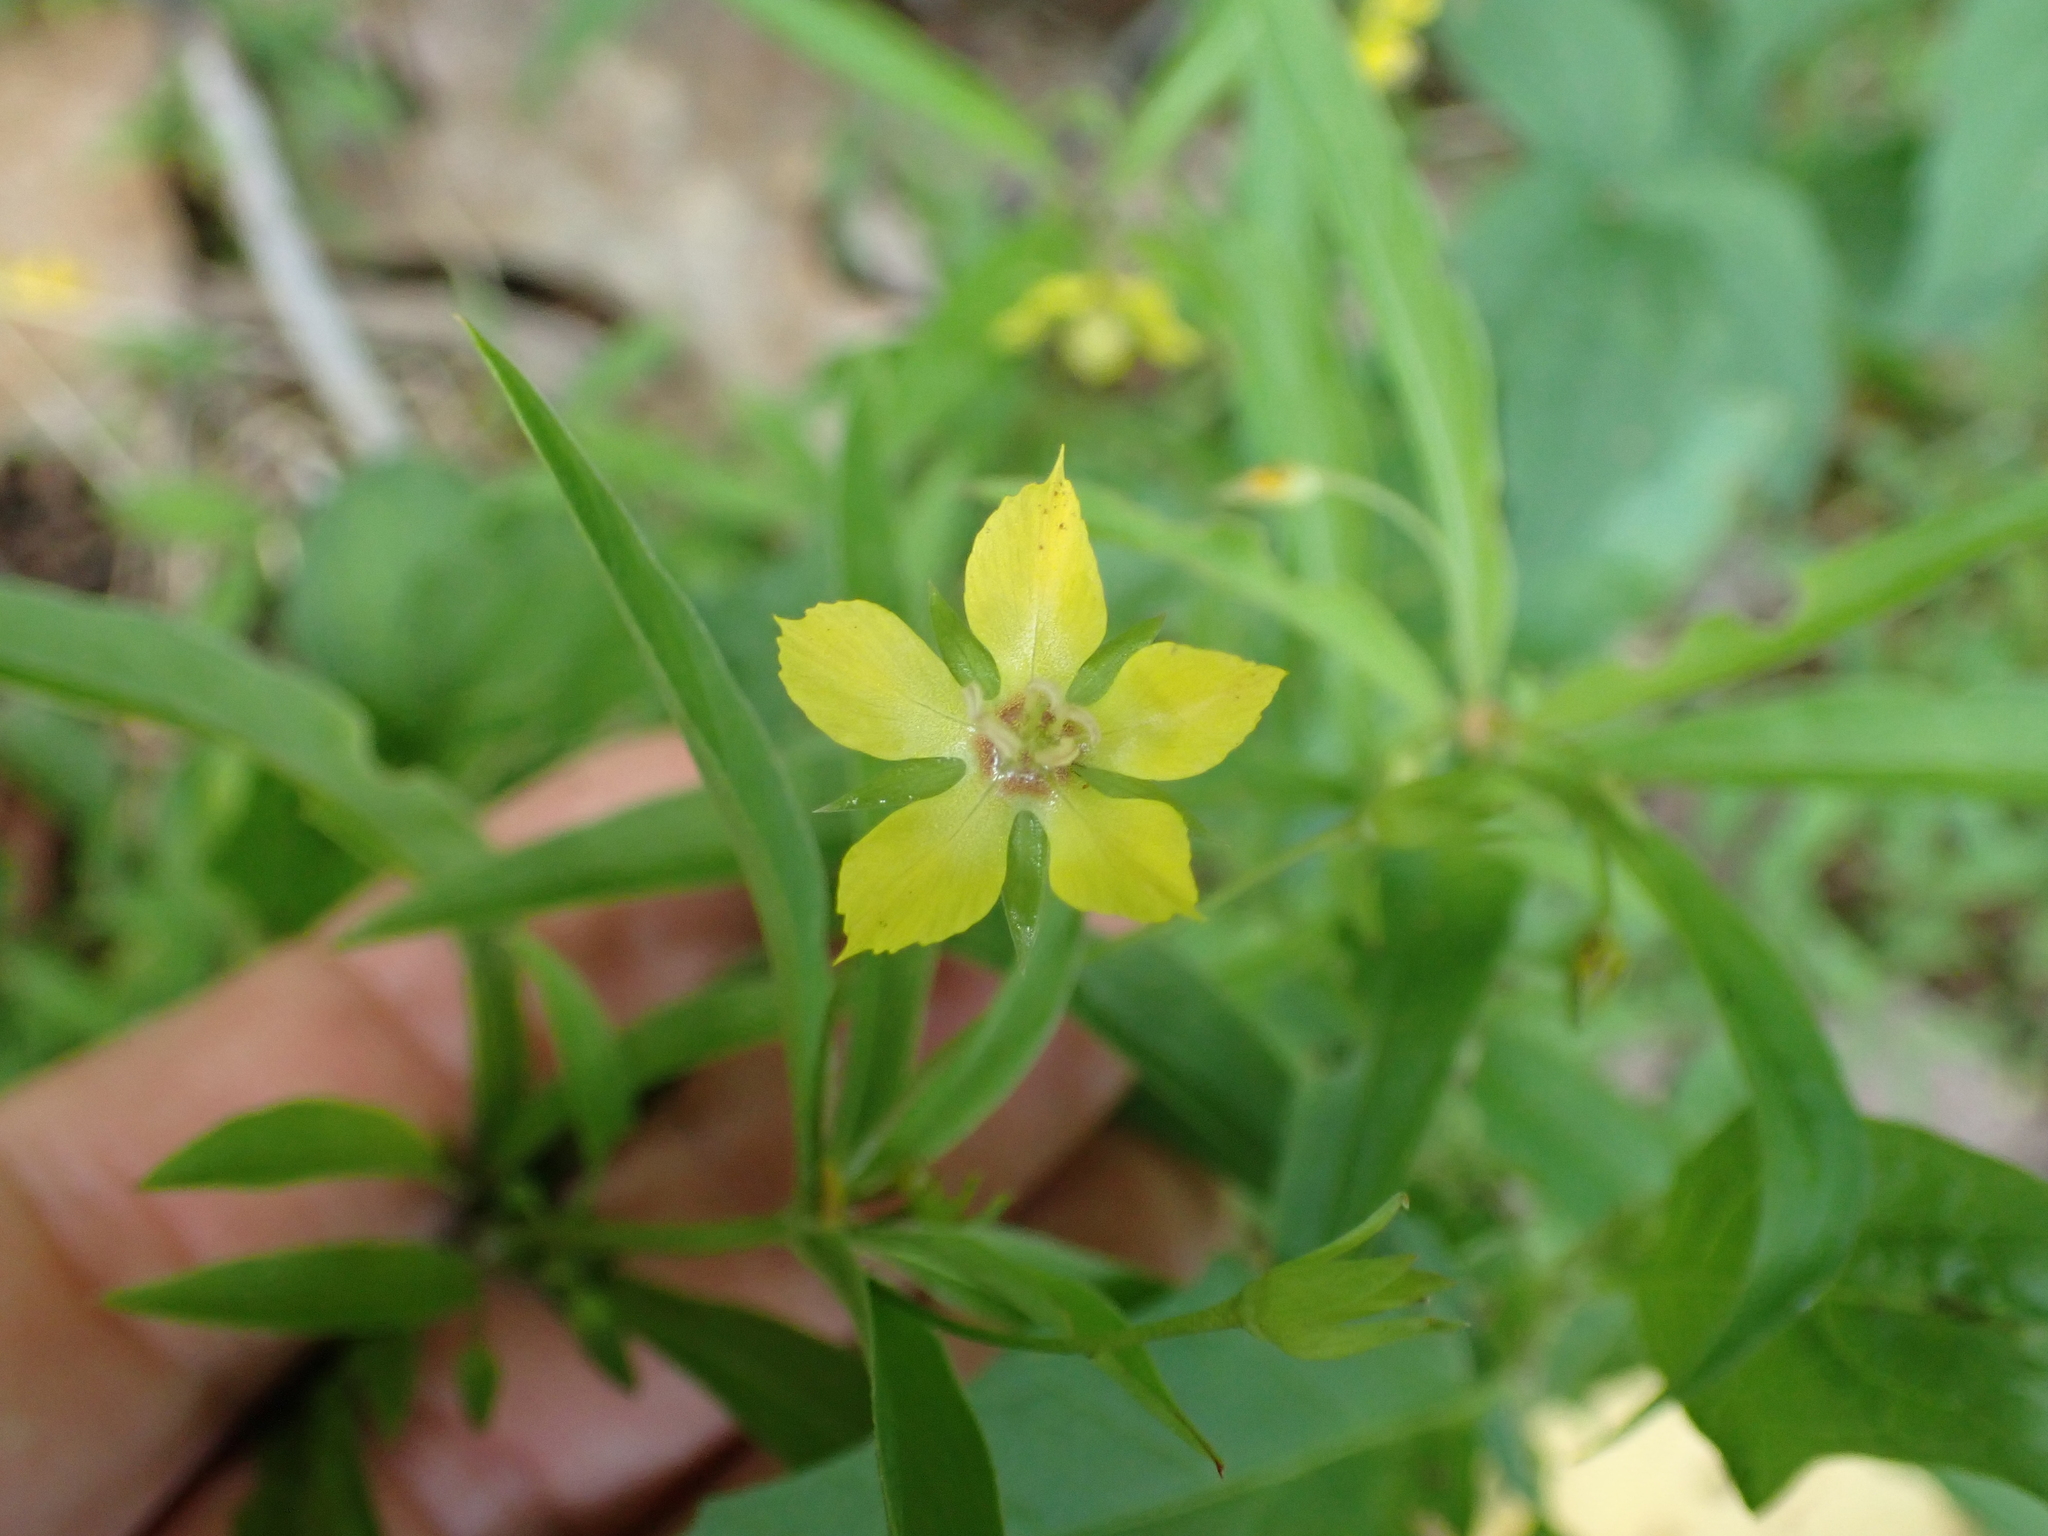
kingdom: Plantae
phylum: Tracheophyta
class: Magnoliopsida
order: Ericales
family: Primulaceae
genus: Lysimachia
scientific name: Lysimachia lanceolata
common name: Lance-leaved loosestrife
